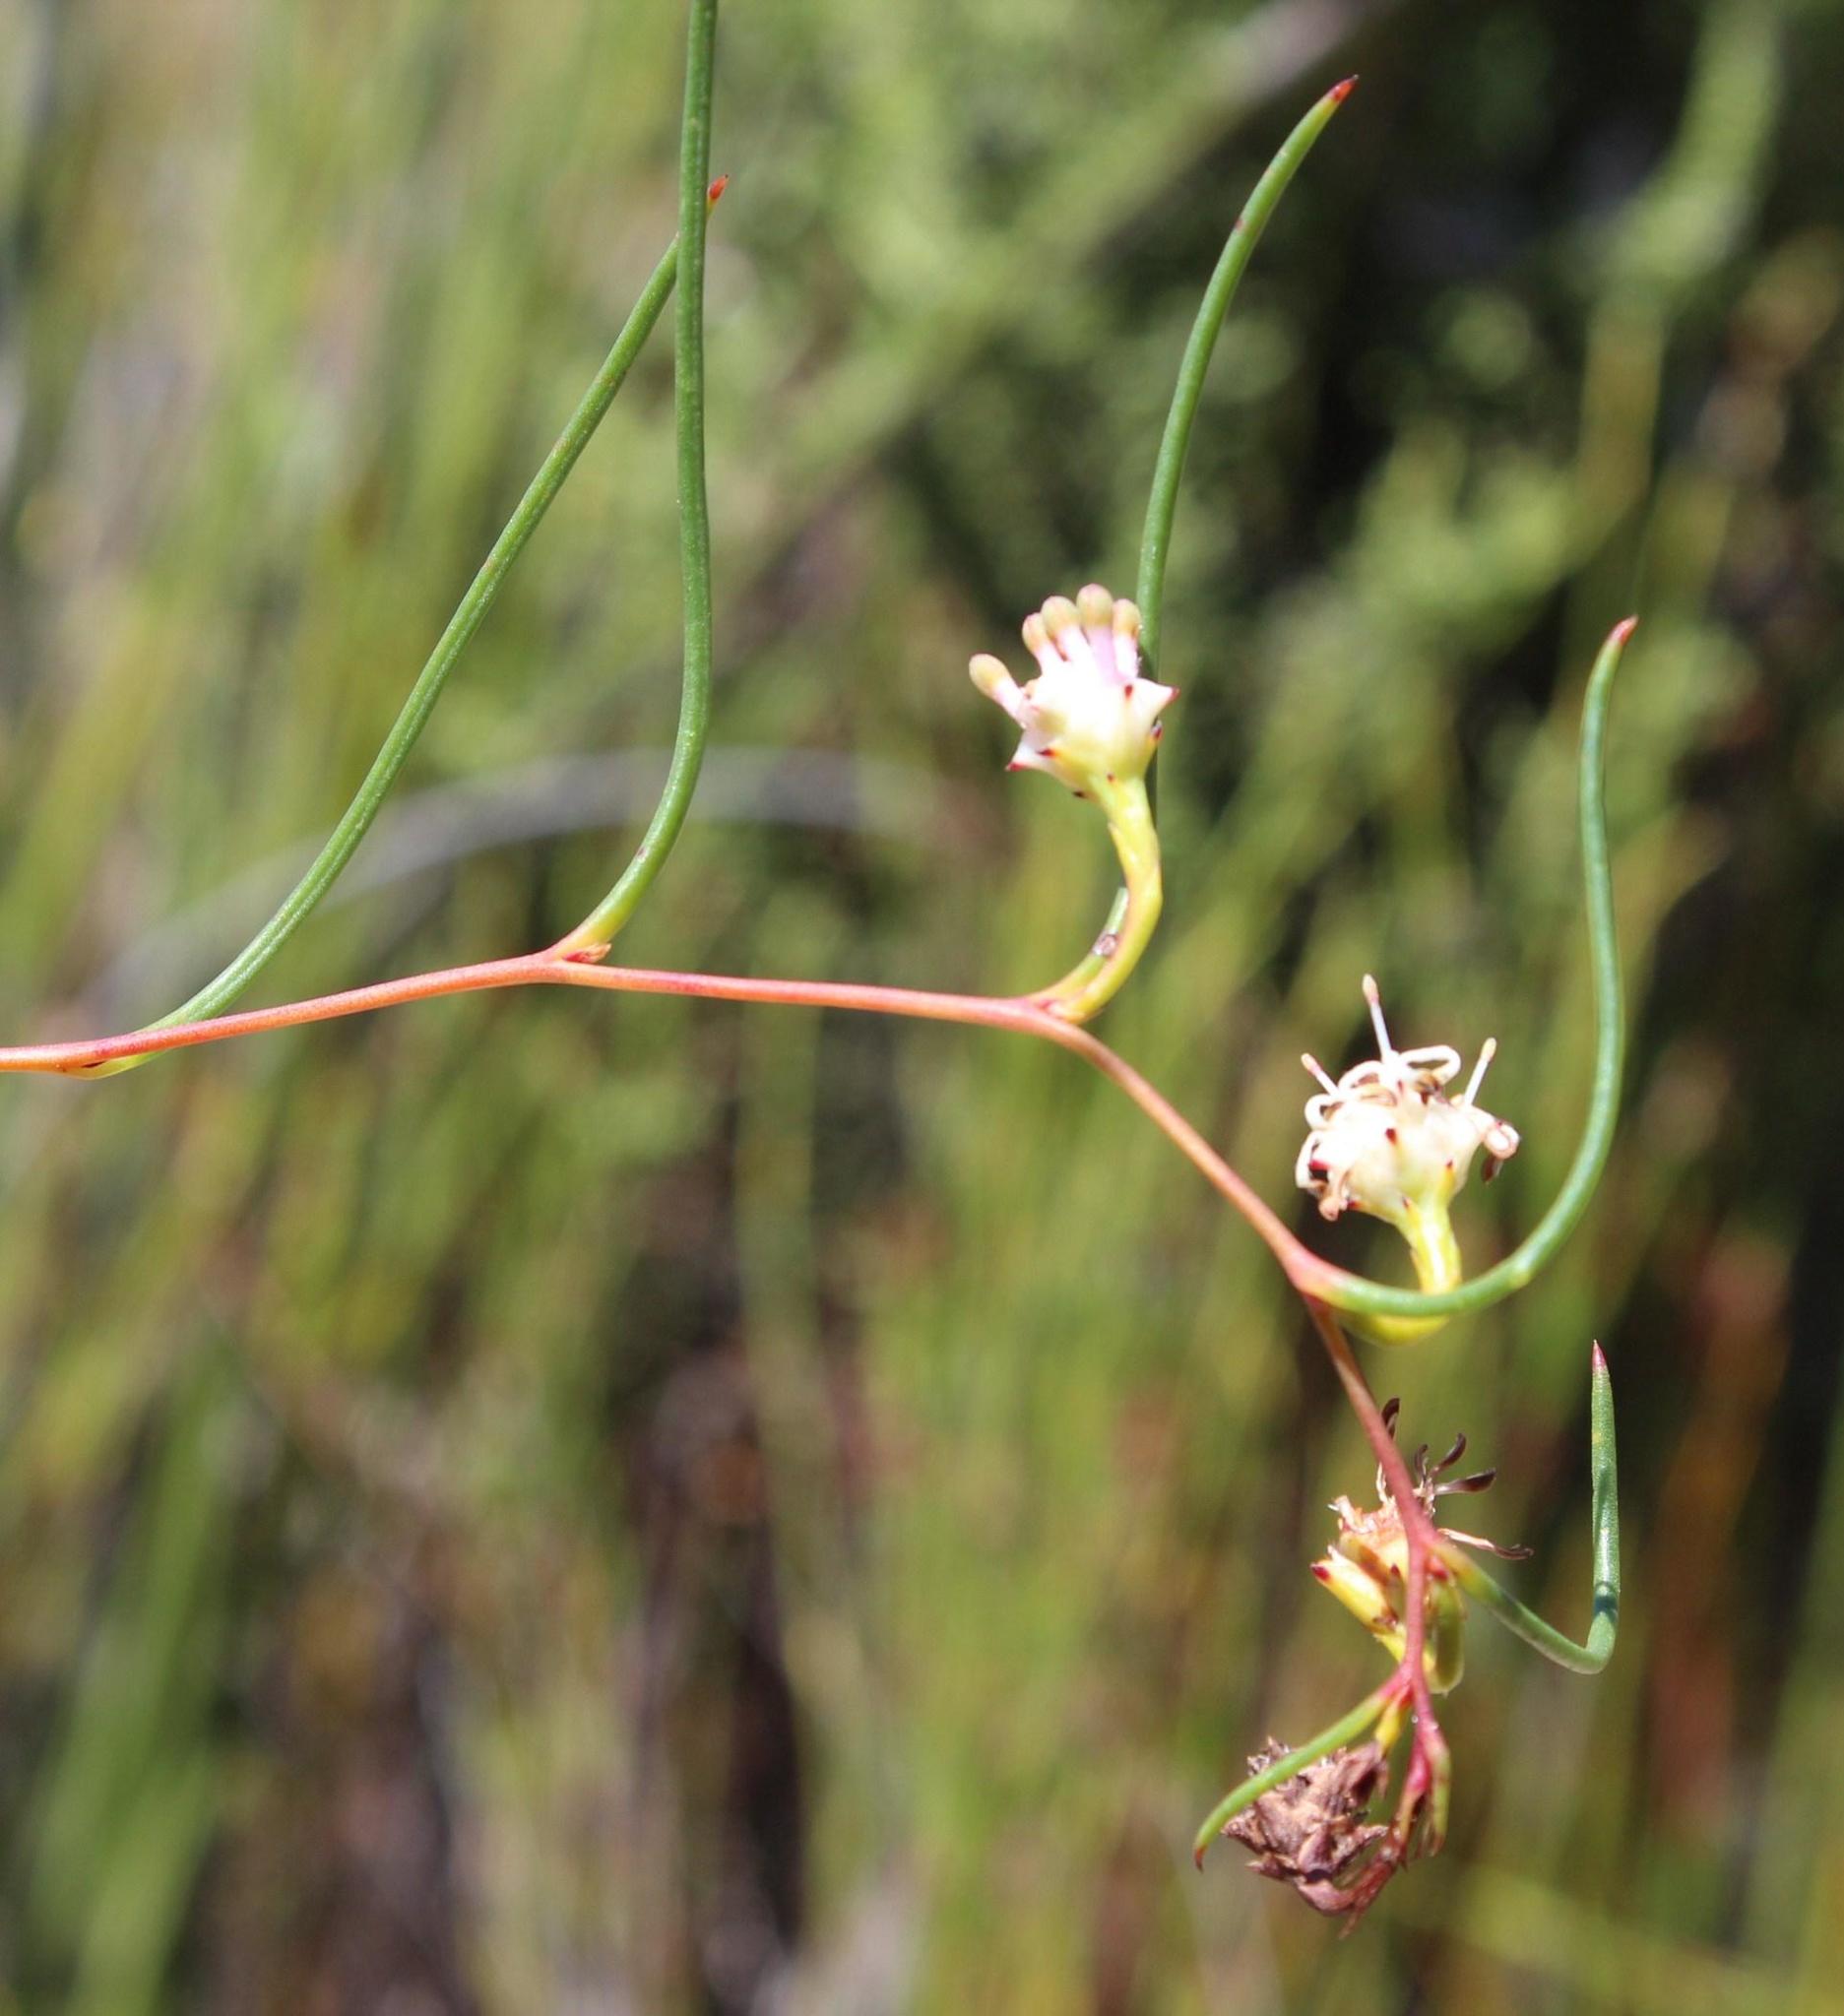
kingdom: Plantae
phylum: Tracheophyta
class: Magnoliopsida
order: Proteales
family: Proteaceae
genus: Serruria
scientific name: Serruria flagellifolia
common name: Houwhoek spiderhead
